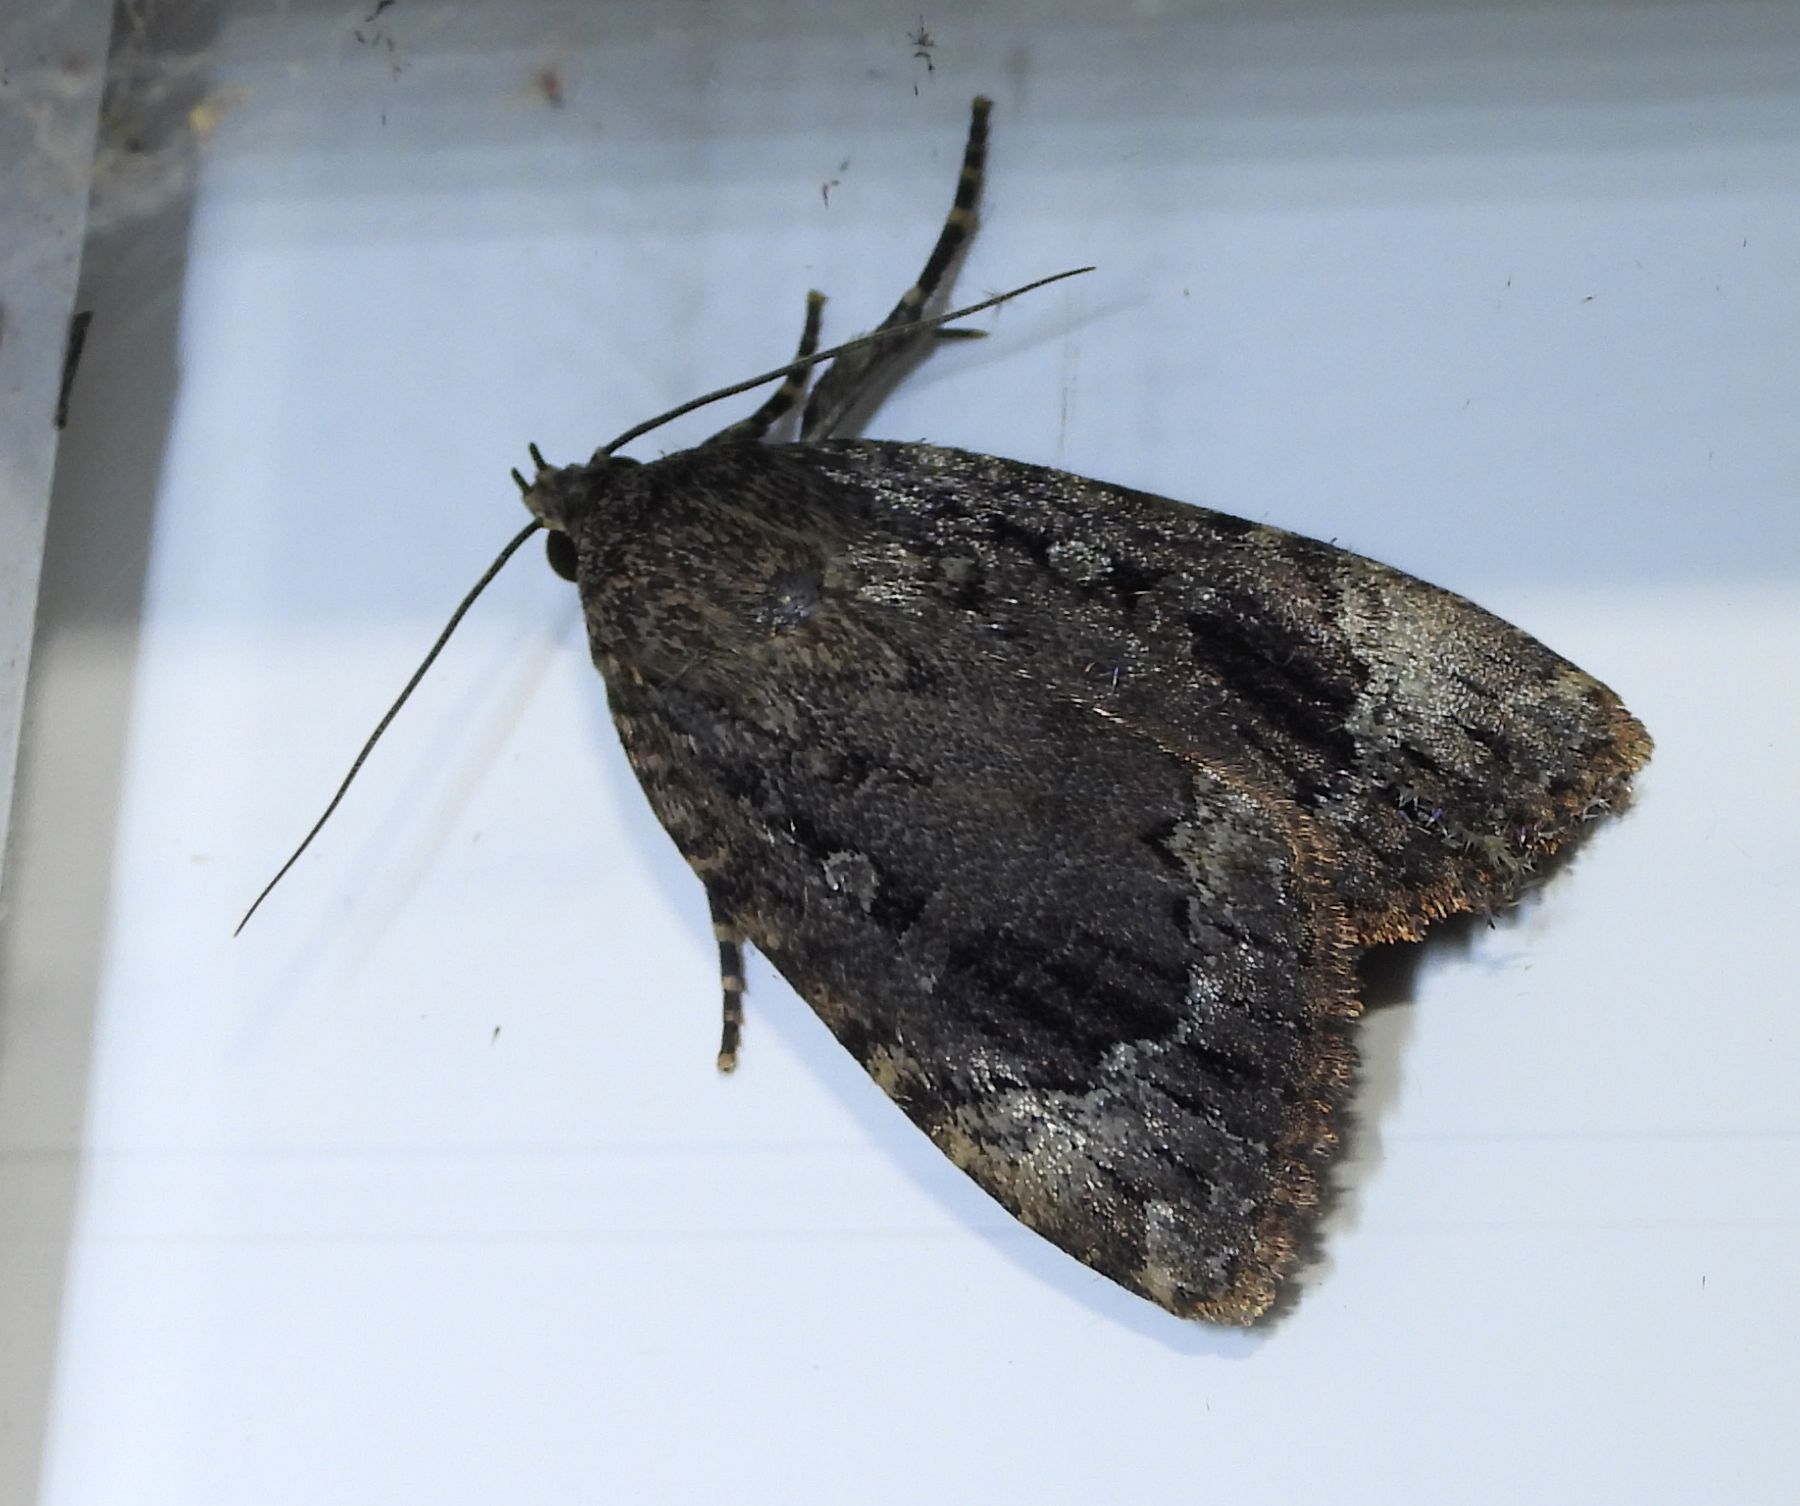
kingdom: Animalia
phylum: Arthropoda
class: Insecta
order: Lepidoptera
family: Noctuidae
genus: Amphipyra
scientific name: Amphipyra pyramidoides
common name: American copper underwing
